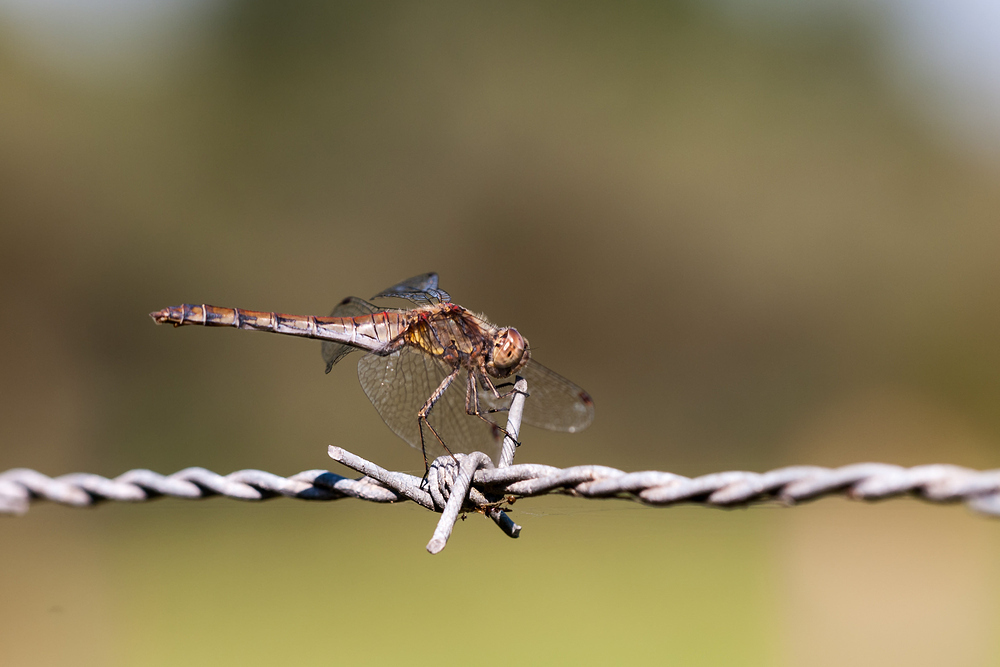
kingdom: Animalia
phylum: Arthropoda
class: Insecta
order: Odonata
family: Libellulidae
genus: Sympetrum
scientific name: Sympetrum striolatum
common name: Common darter
